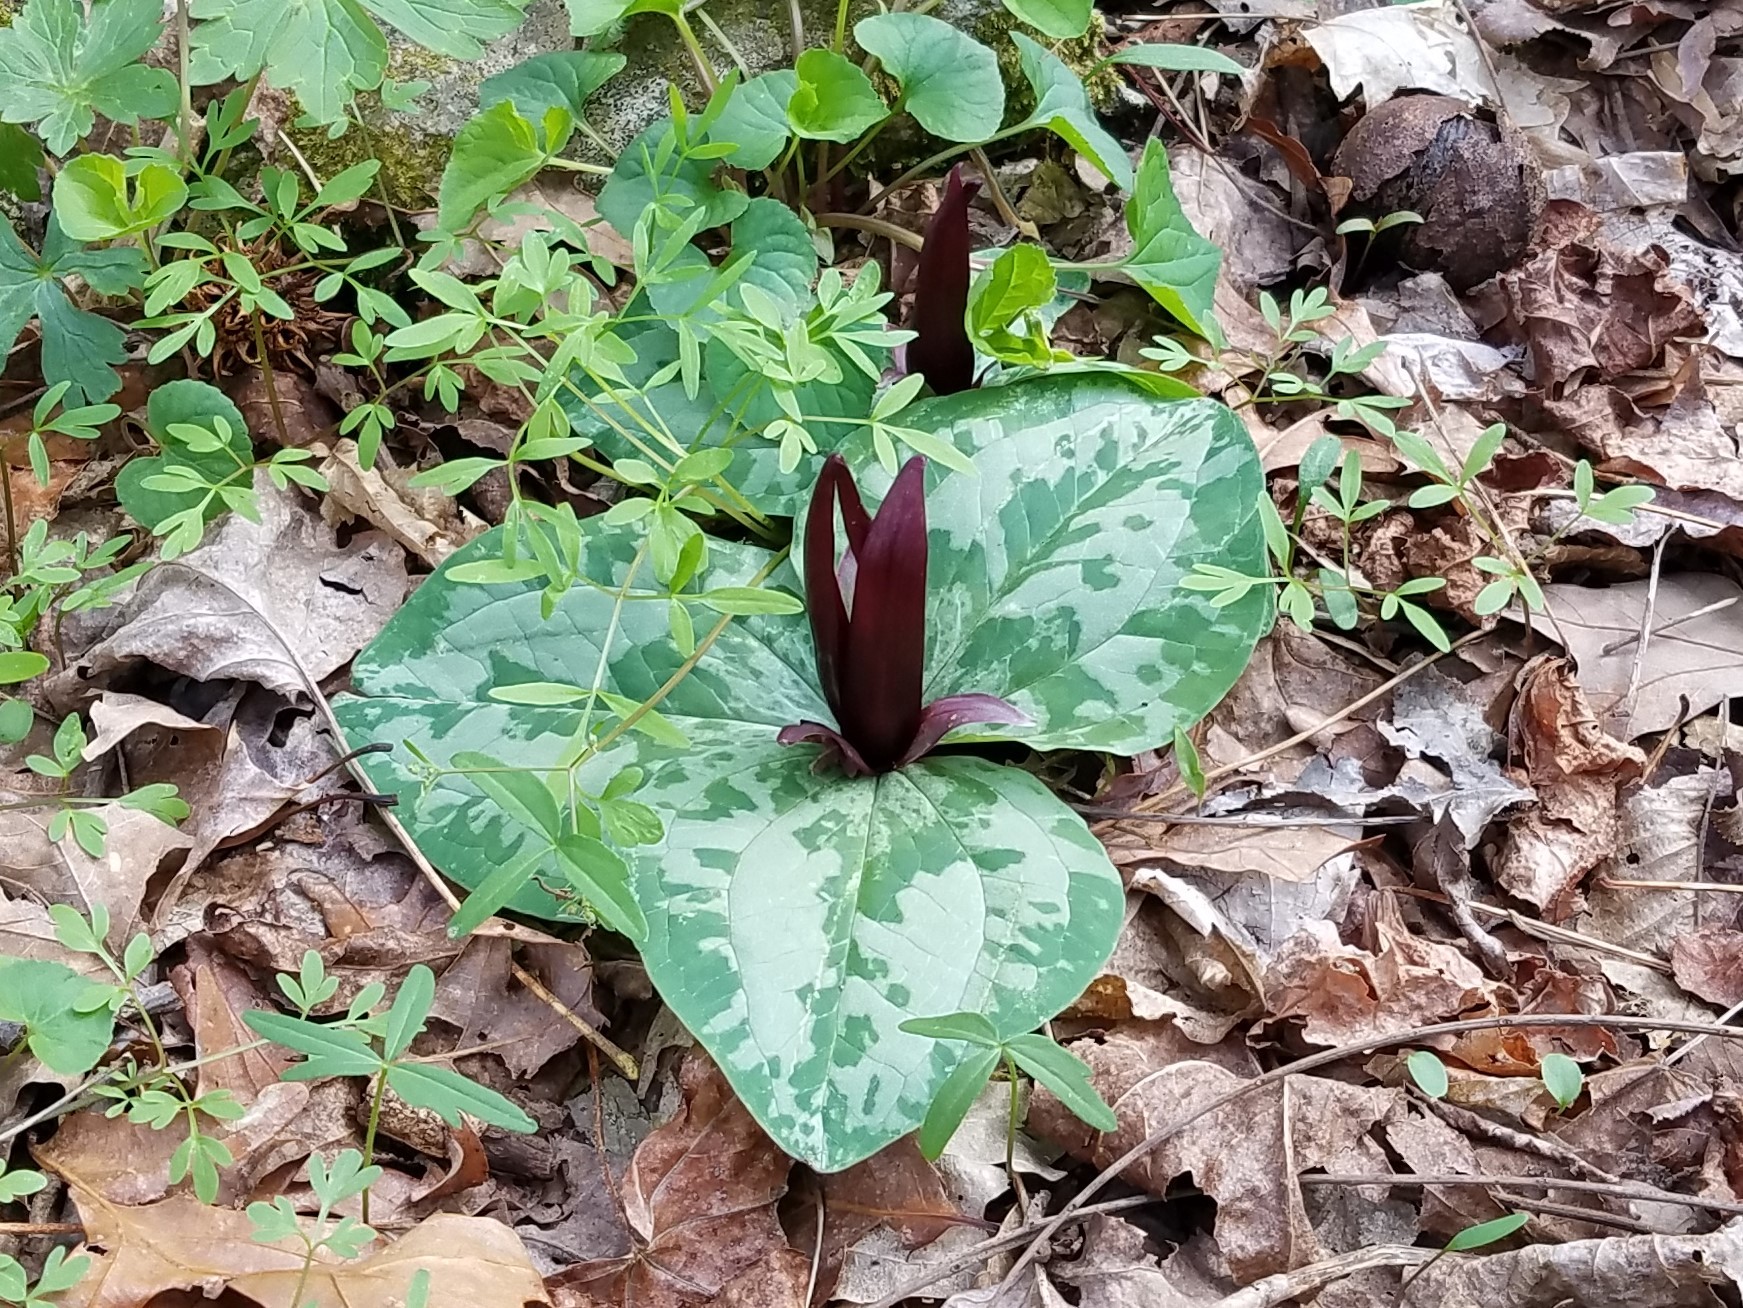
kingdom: Plantae
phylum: Tracheophyta
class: Liliopsida
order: Liliales
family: Melanthiaceae
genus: Trillium
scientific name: Trillium decumbens
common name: Decumbent trillium
